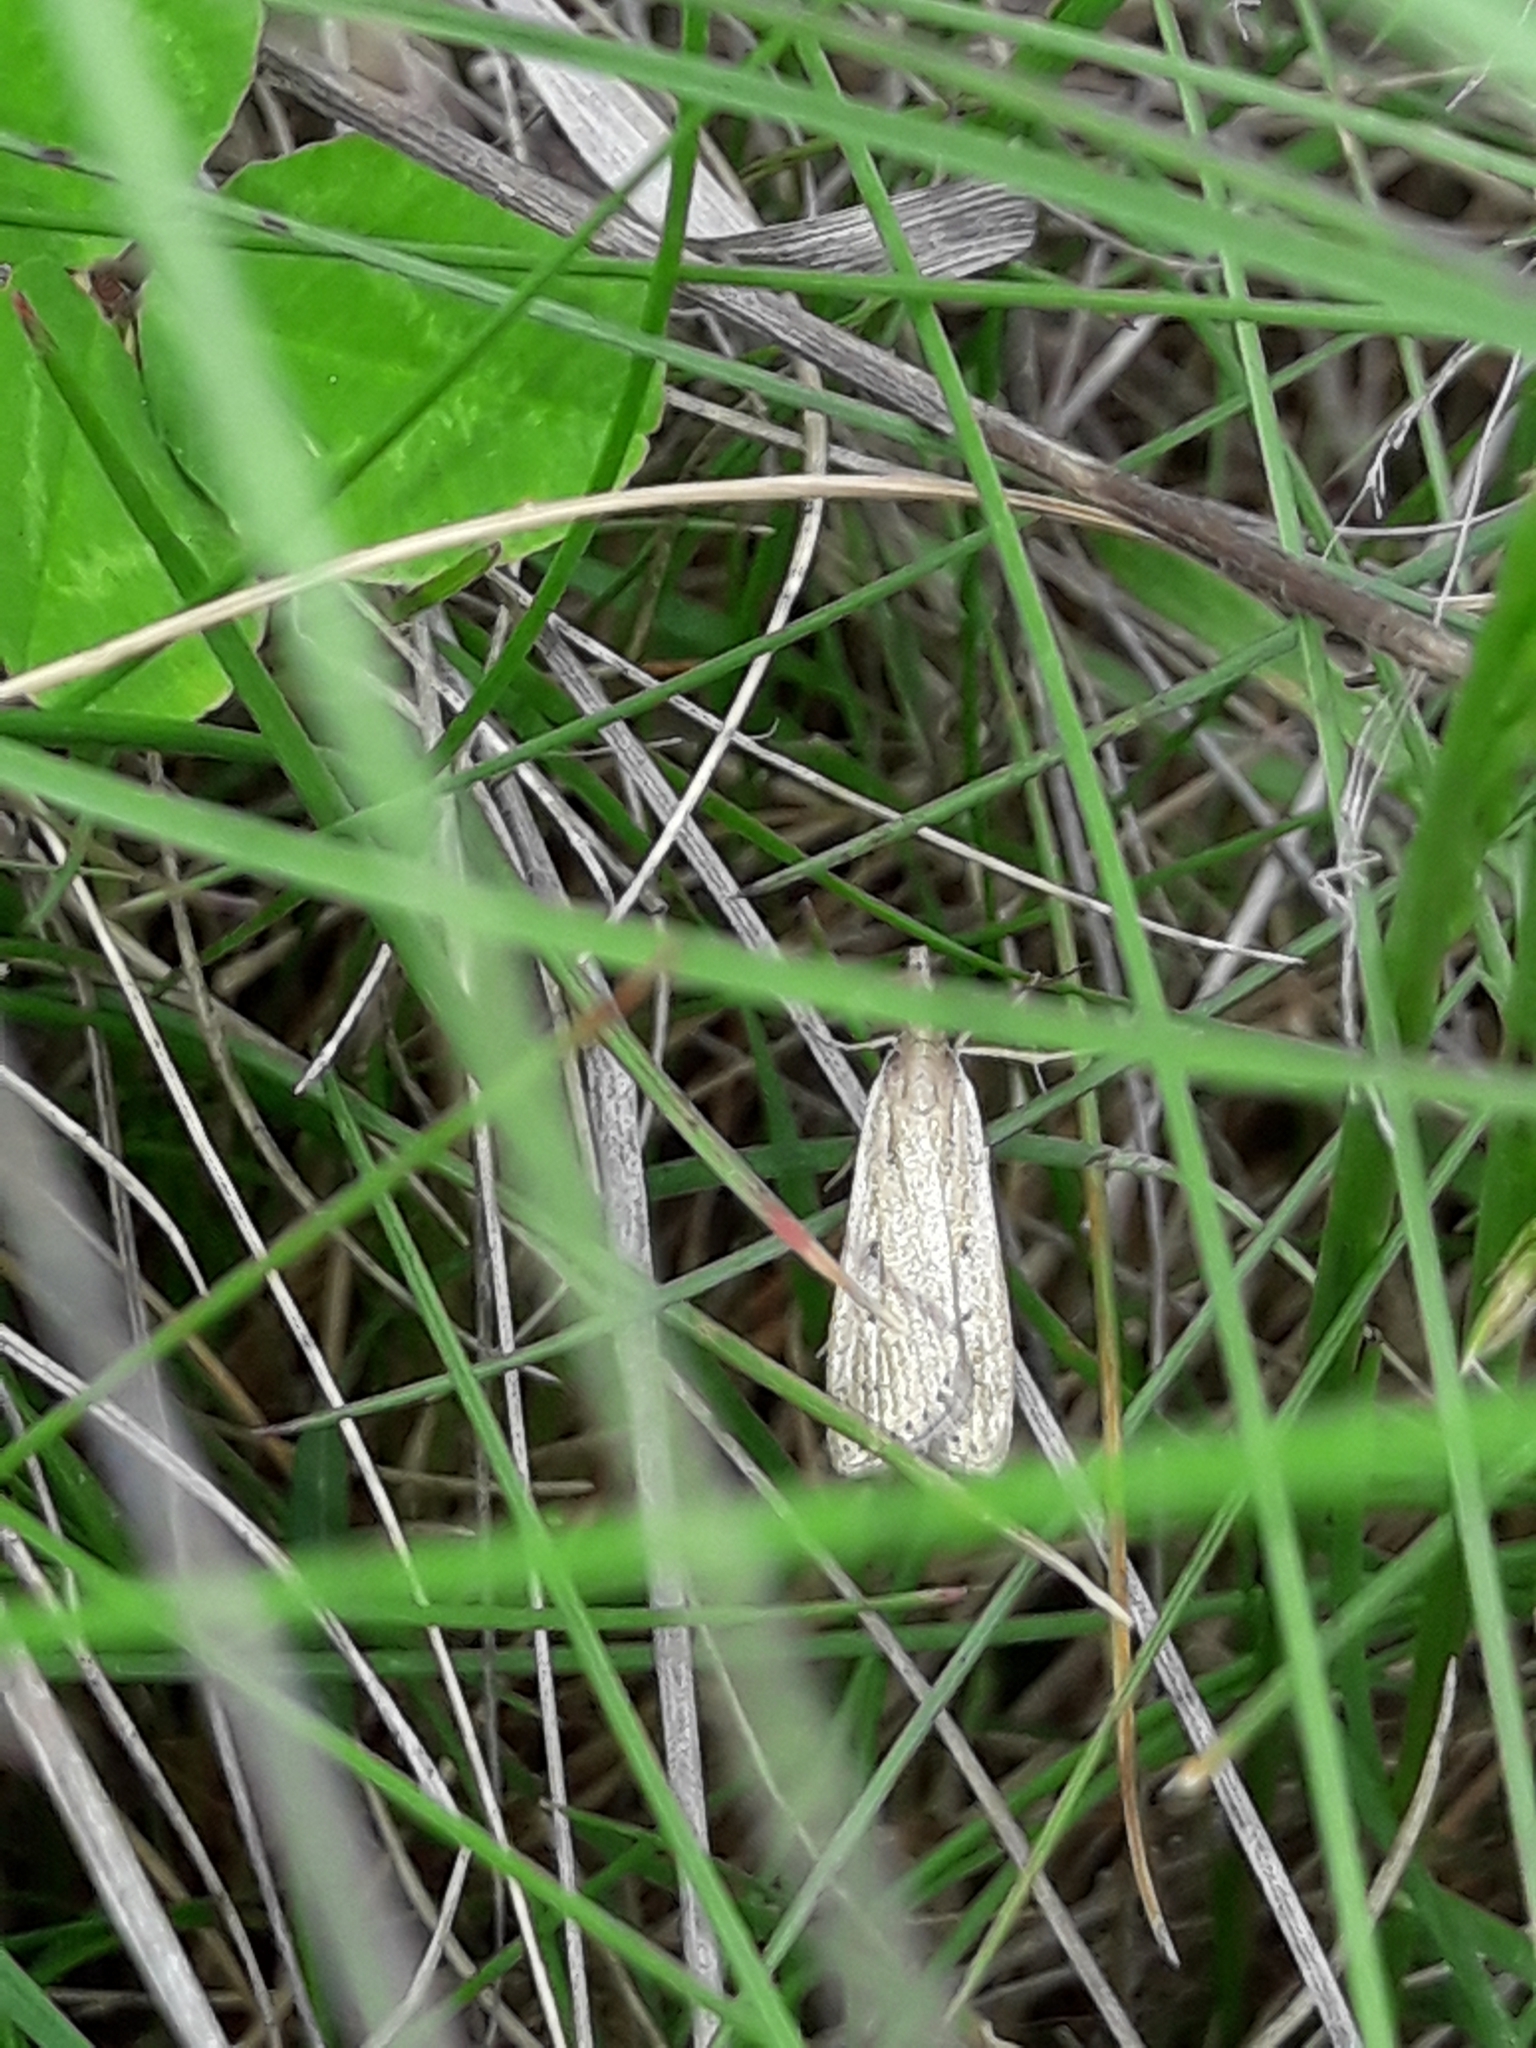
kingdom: Animalia
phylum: Arthropoda
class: Insecta
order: Lepidoptera
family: Crambidae
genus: Eudonia
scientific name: Eudonia sabulosella
